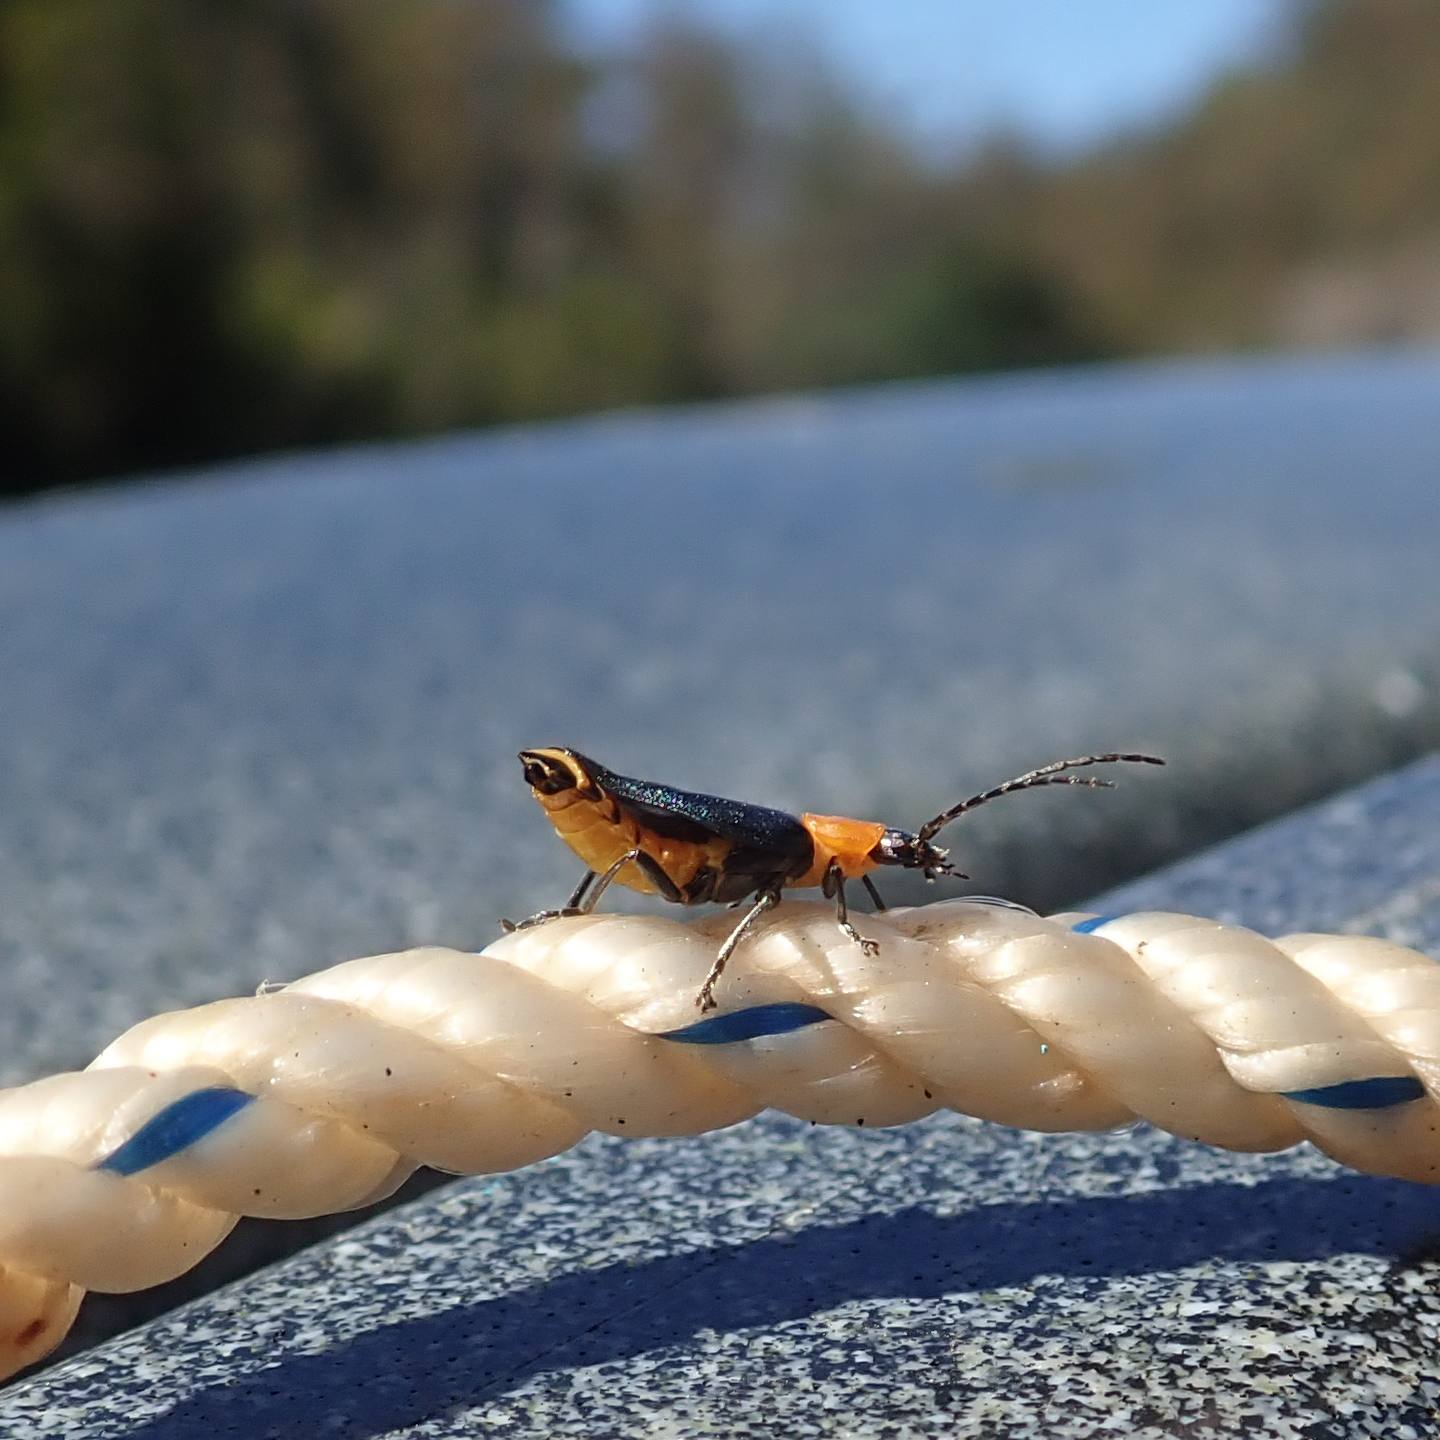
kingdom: Animalia
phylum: Arthropoda
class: Insecta
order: Coleoptera
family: Cantharidae
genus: Chauliognathus
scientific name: Chauliognathus
